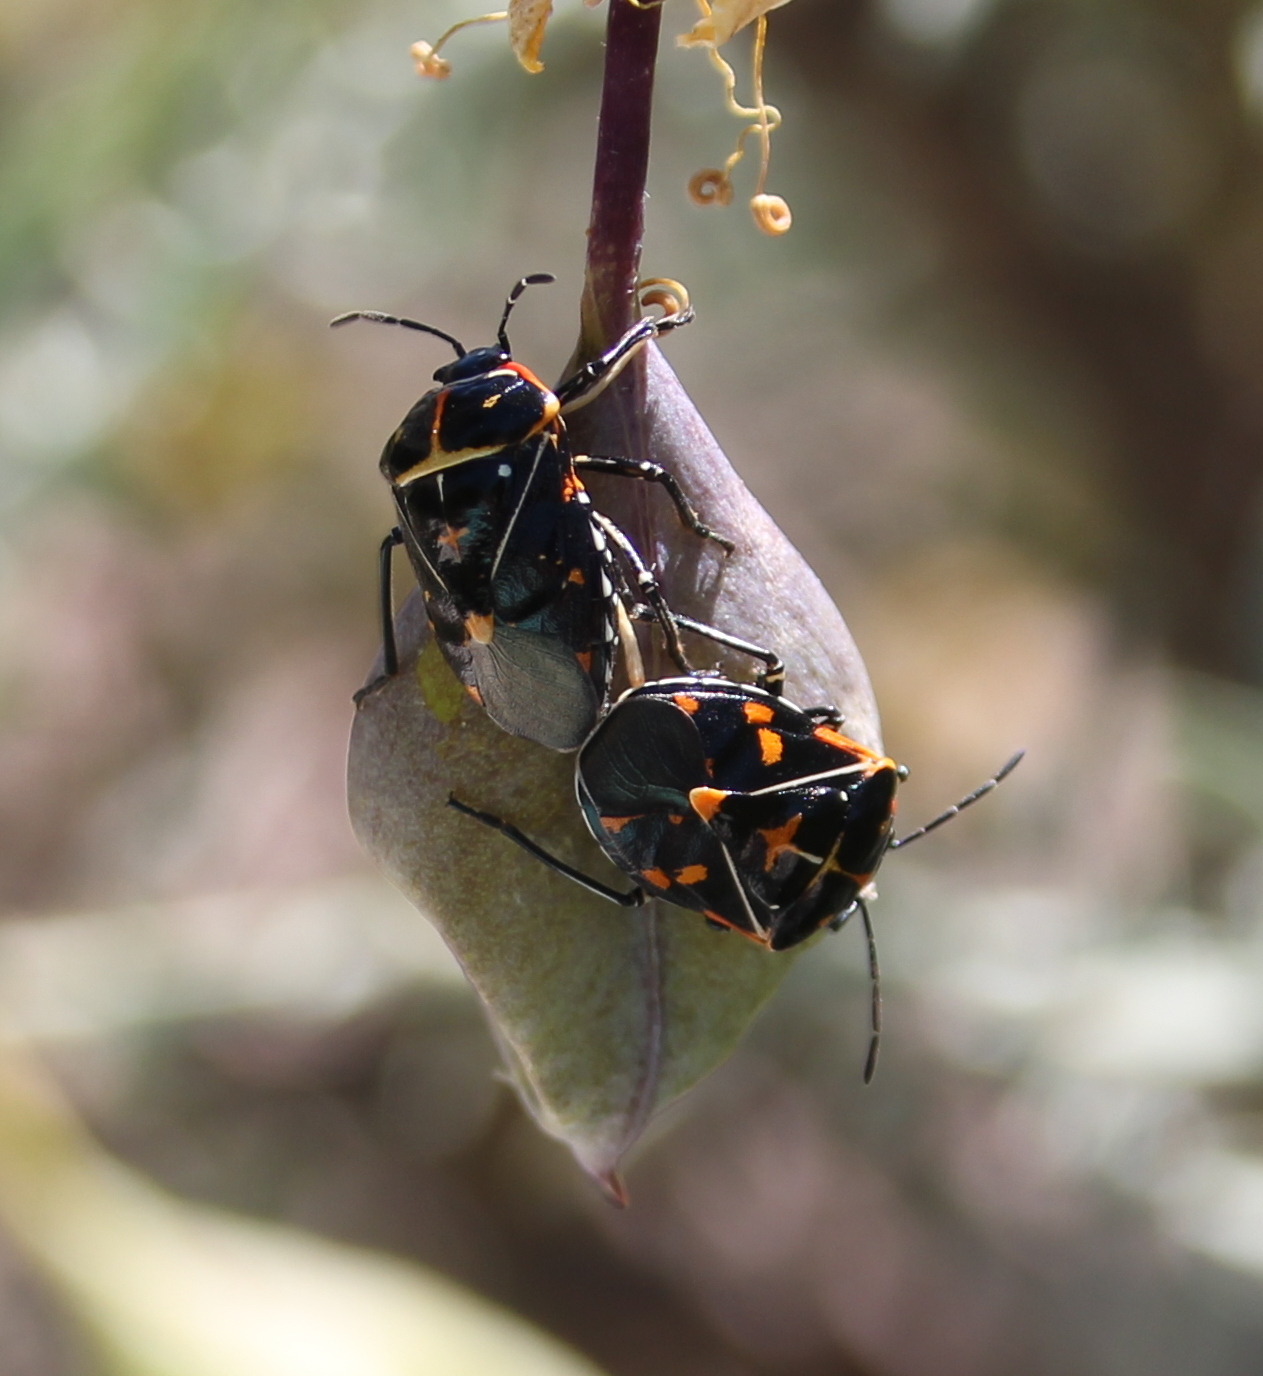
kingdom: Animalia
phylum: Arthropoda
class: Insecta
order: Hemiptera
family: Pentatomidae
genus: Murgantia
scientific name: Murgantia histrionica
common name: Harlequin bug
